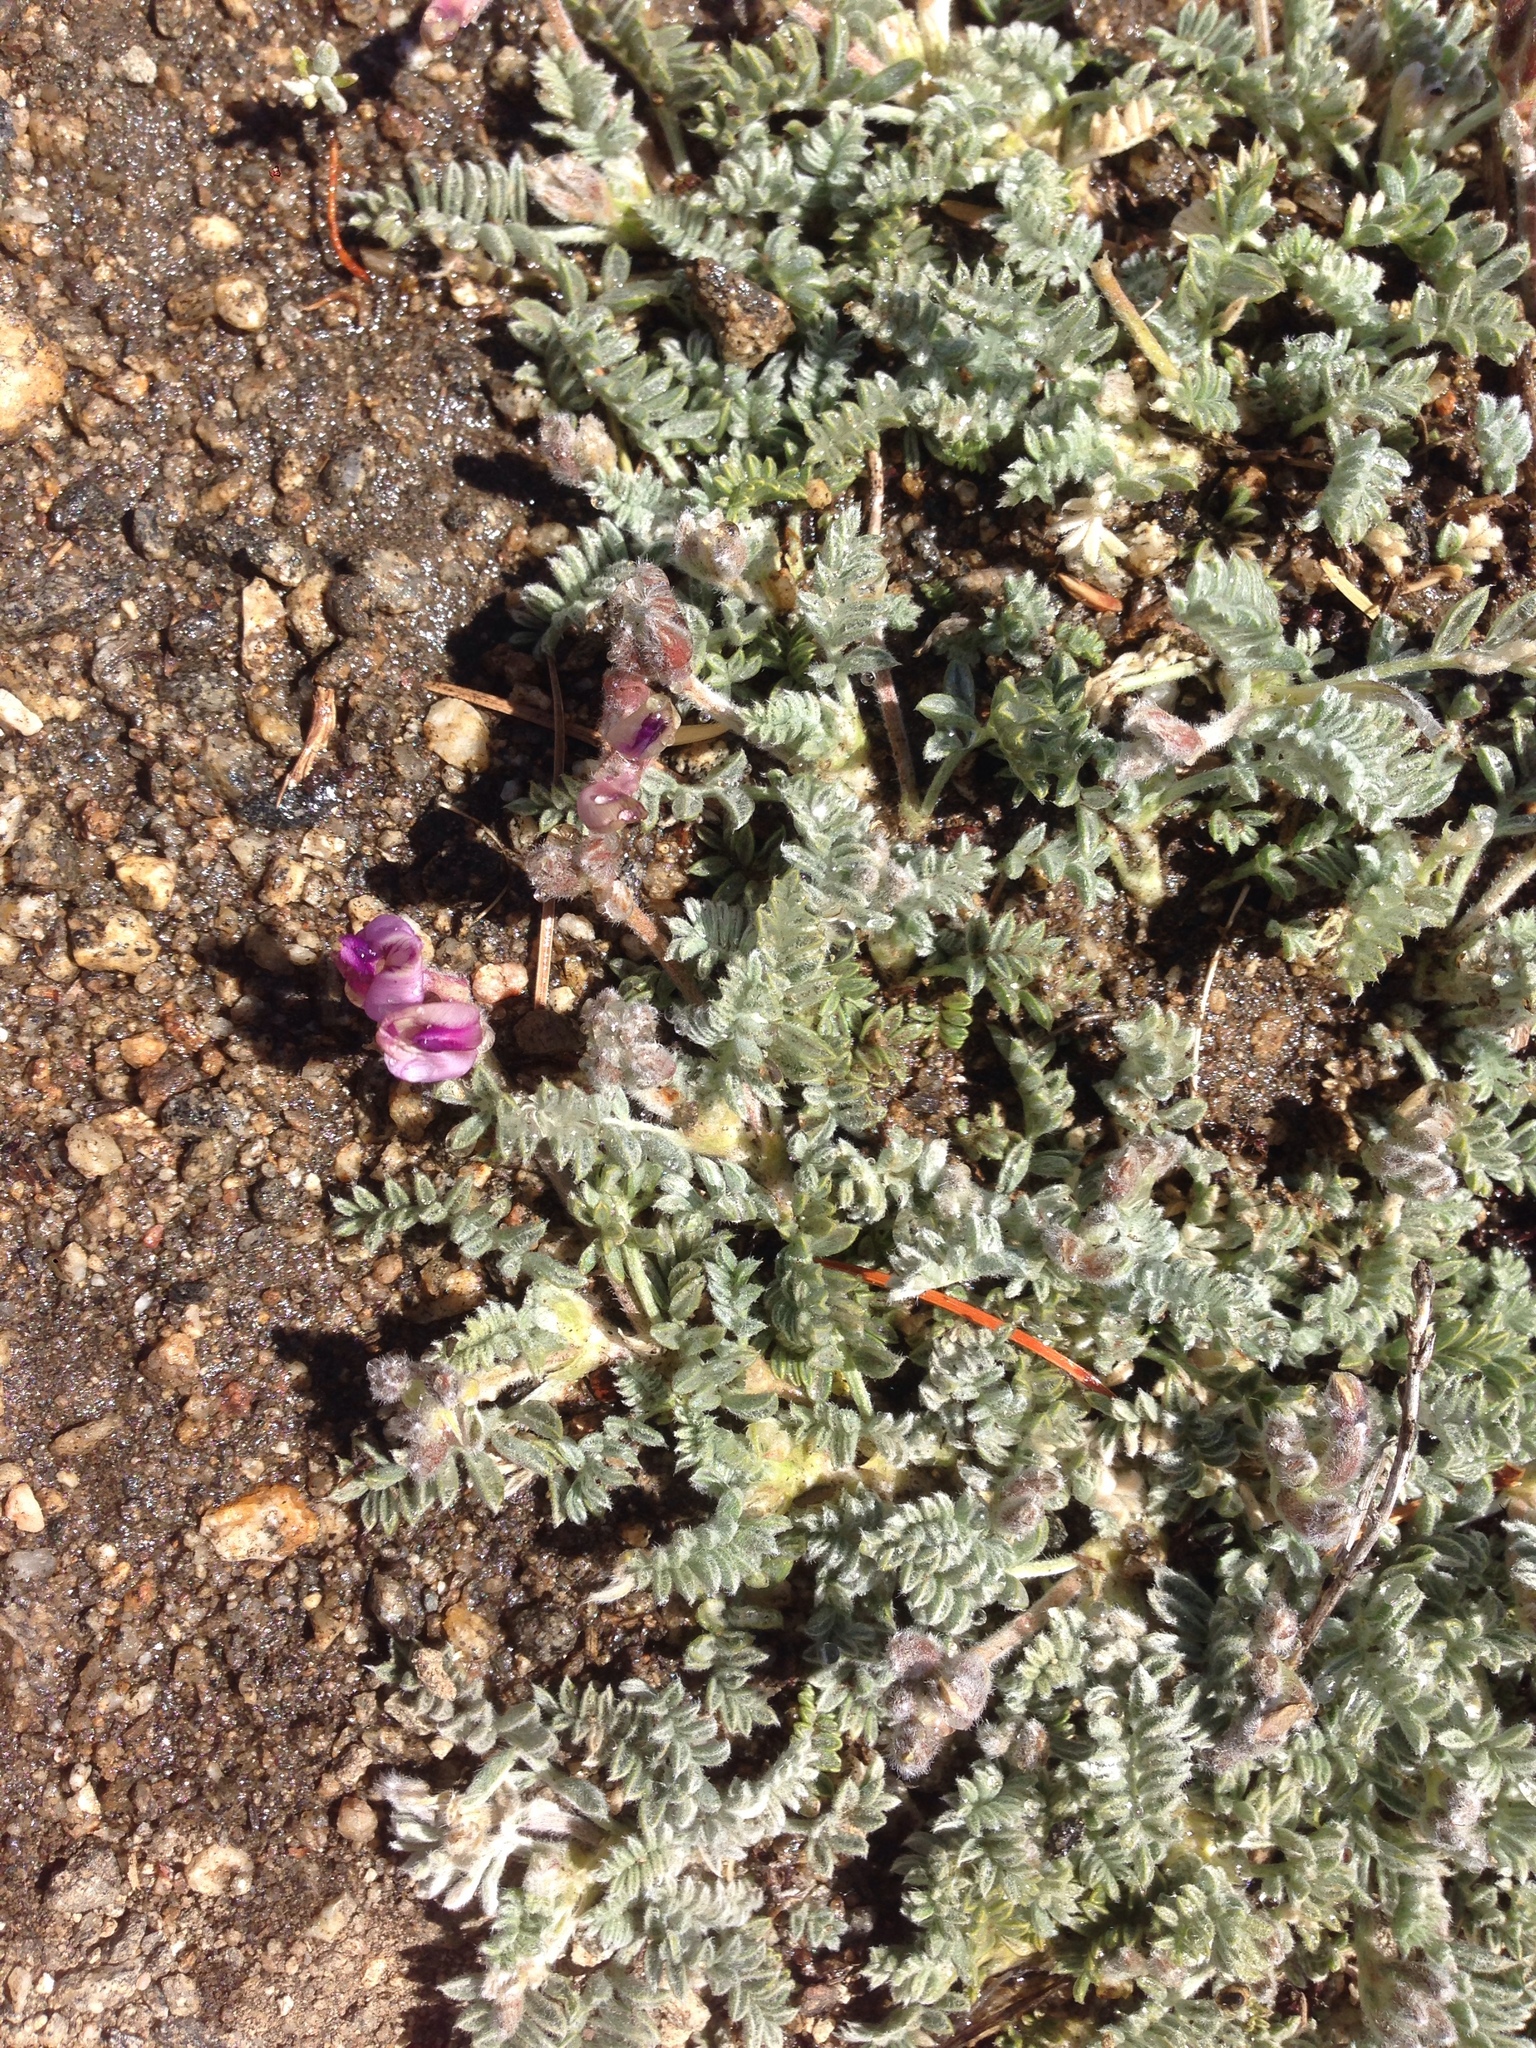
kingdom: Plantae
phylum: Tracheophyta
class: Magnoliopsida
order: Fabales
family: Fabaceae
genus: Astragalus
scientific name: Astragalus purshii
